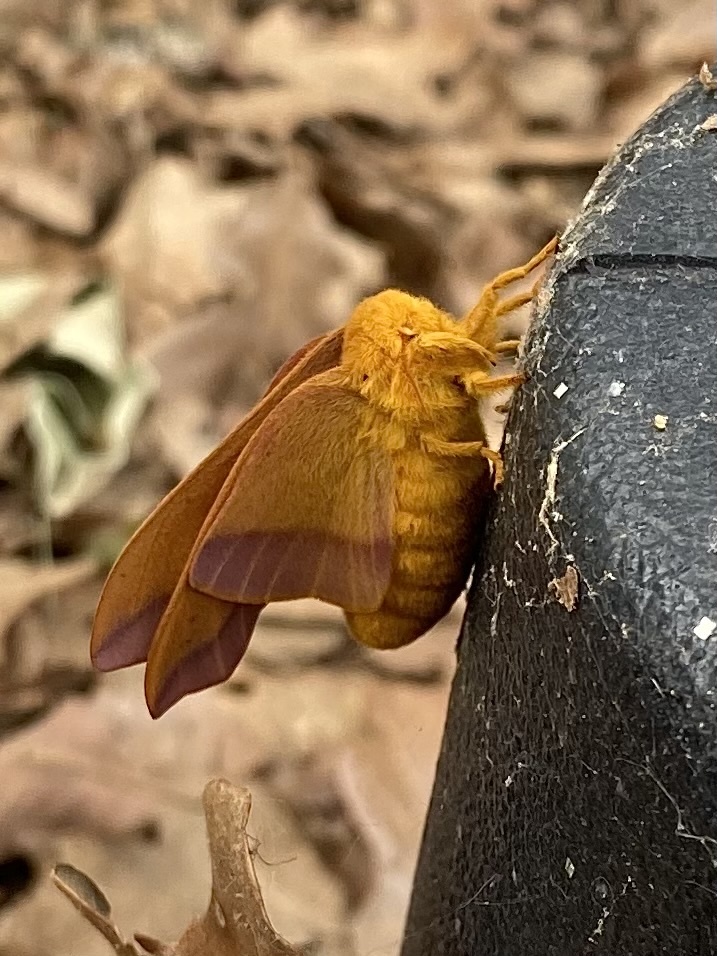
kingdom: Animalia
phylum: Arthropoda
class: Insecta
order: Lepidoptera
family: Saturniidae
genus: Anisota
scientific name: Anisota virginiensis
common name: Pink striped oakworm moth
